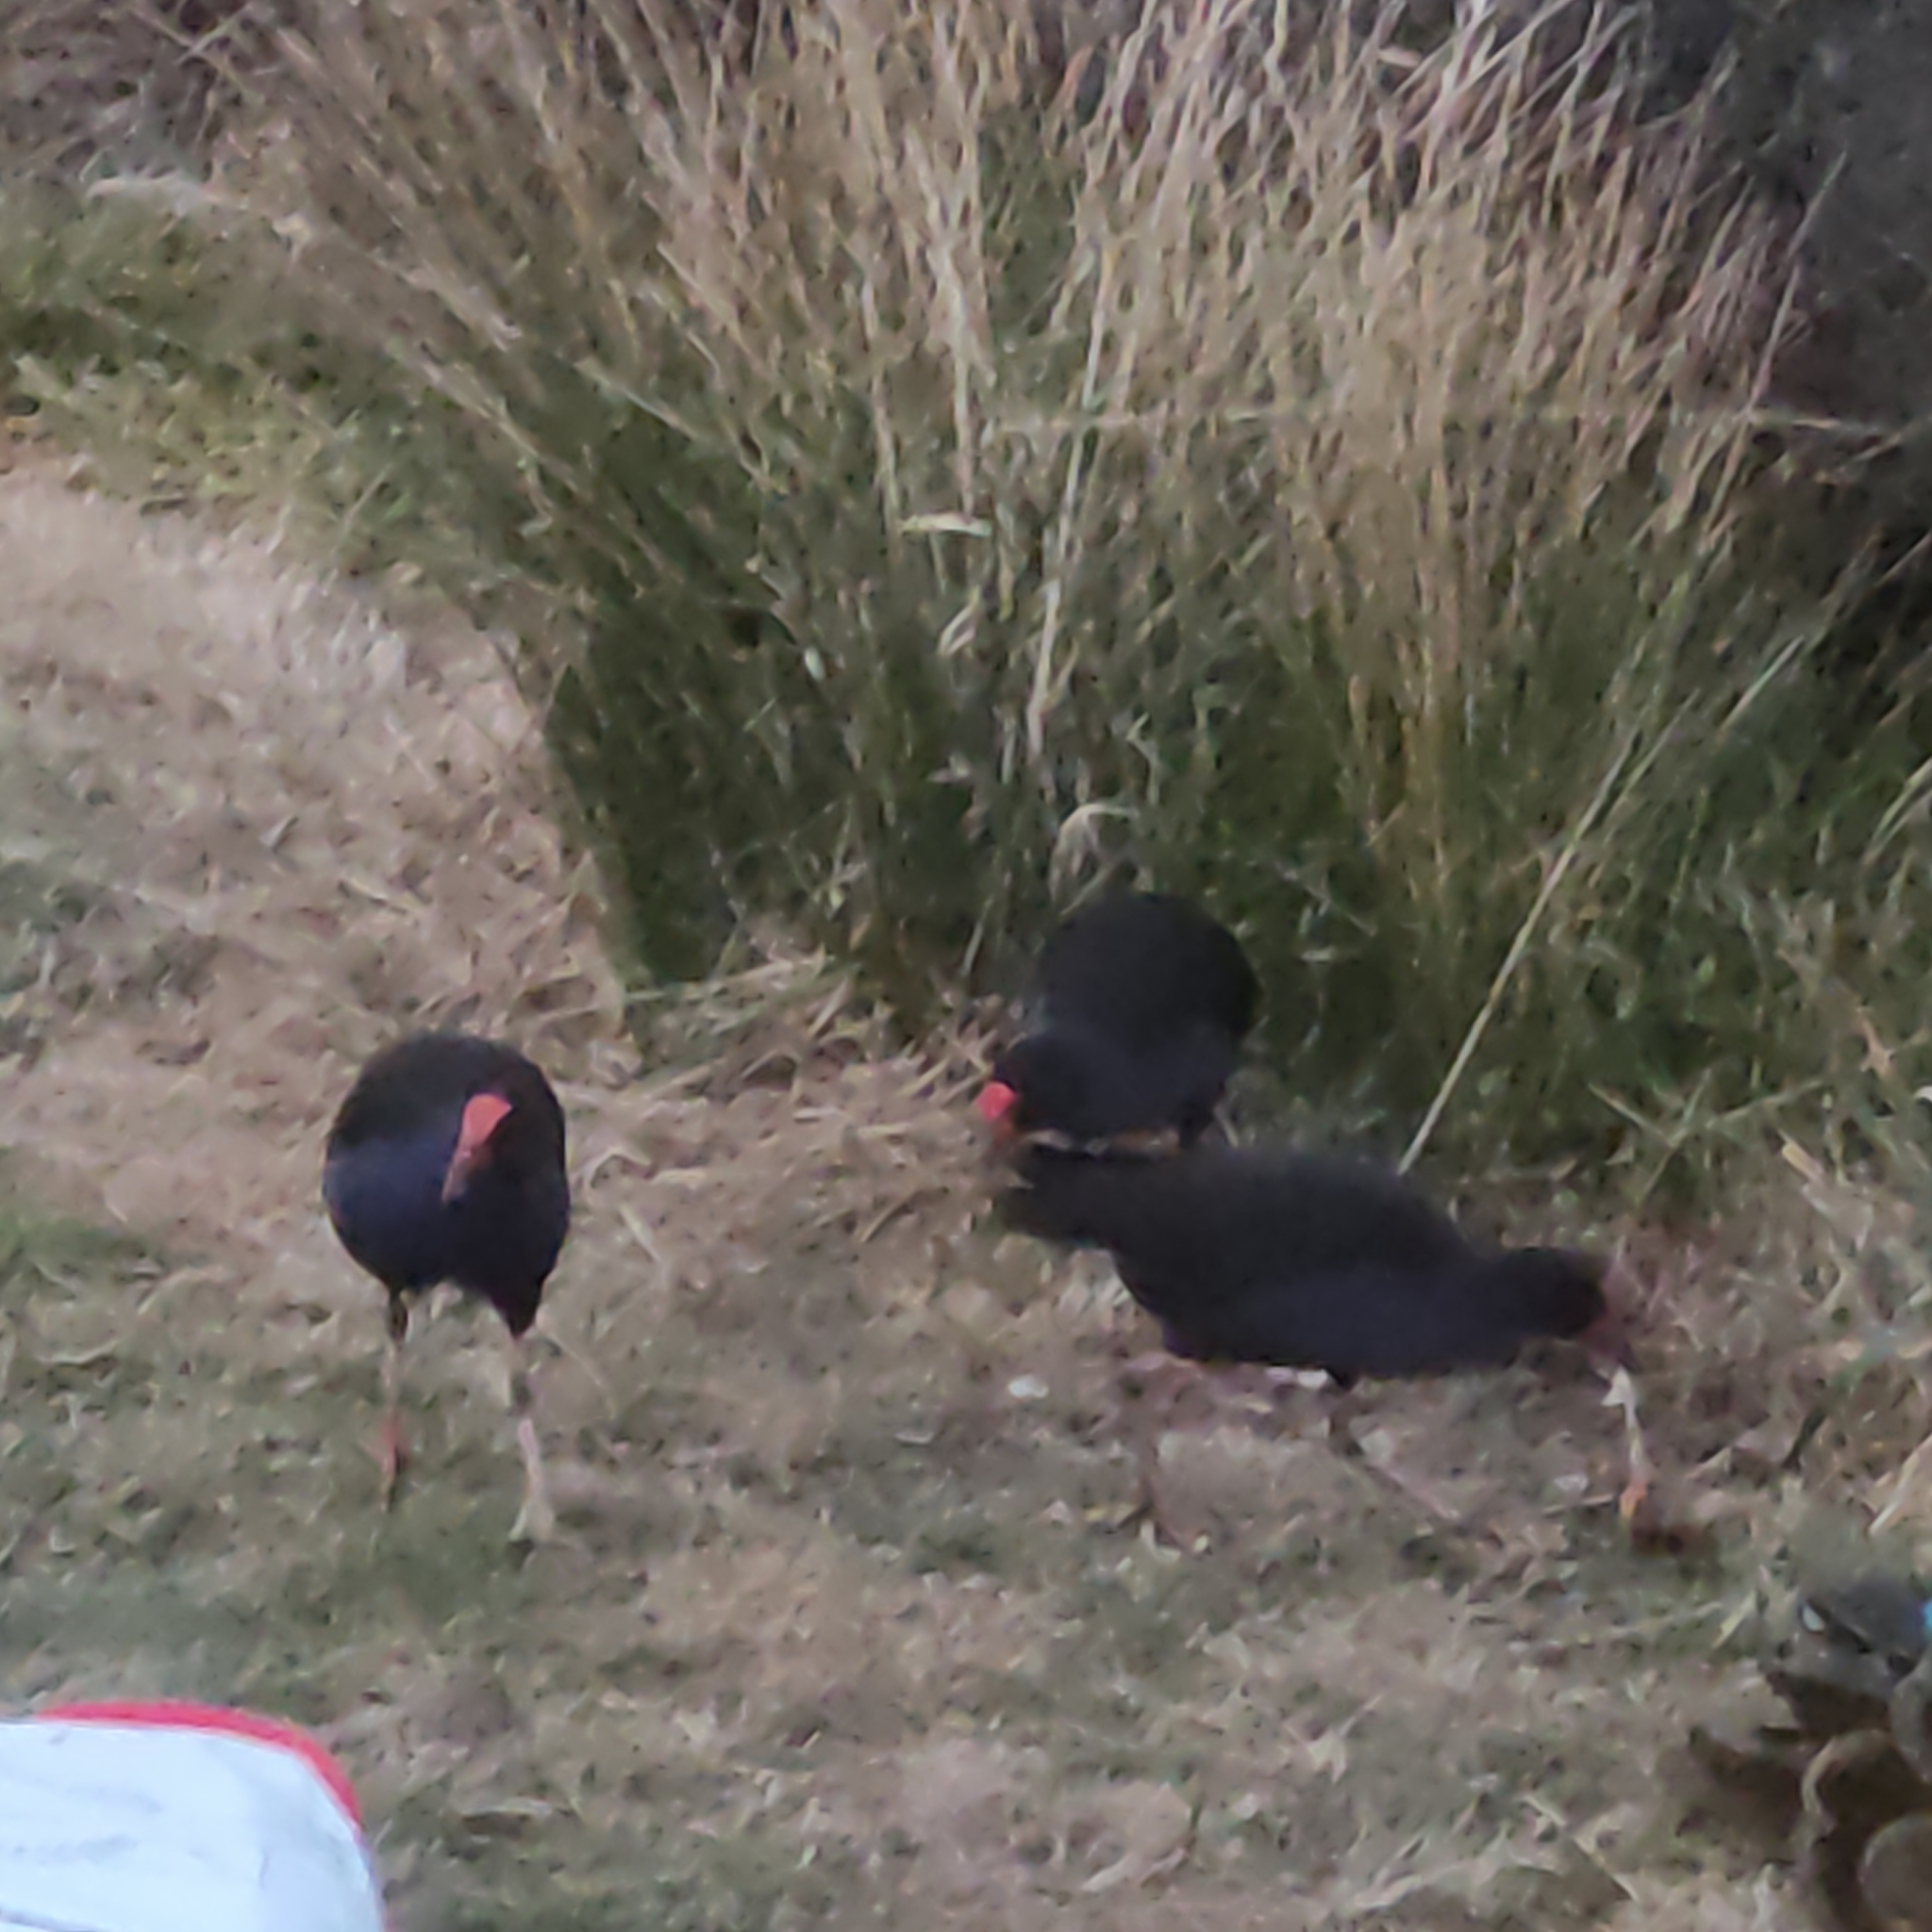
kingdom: Animalia
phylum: Chordata
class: Aves
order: Gruiformes
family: Rallidae
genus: Porphyrio
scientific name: Porphyrio melanotus
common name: Australasian swamphen
